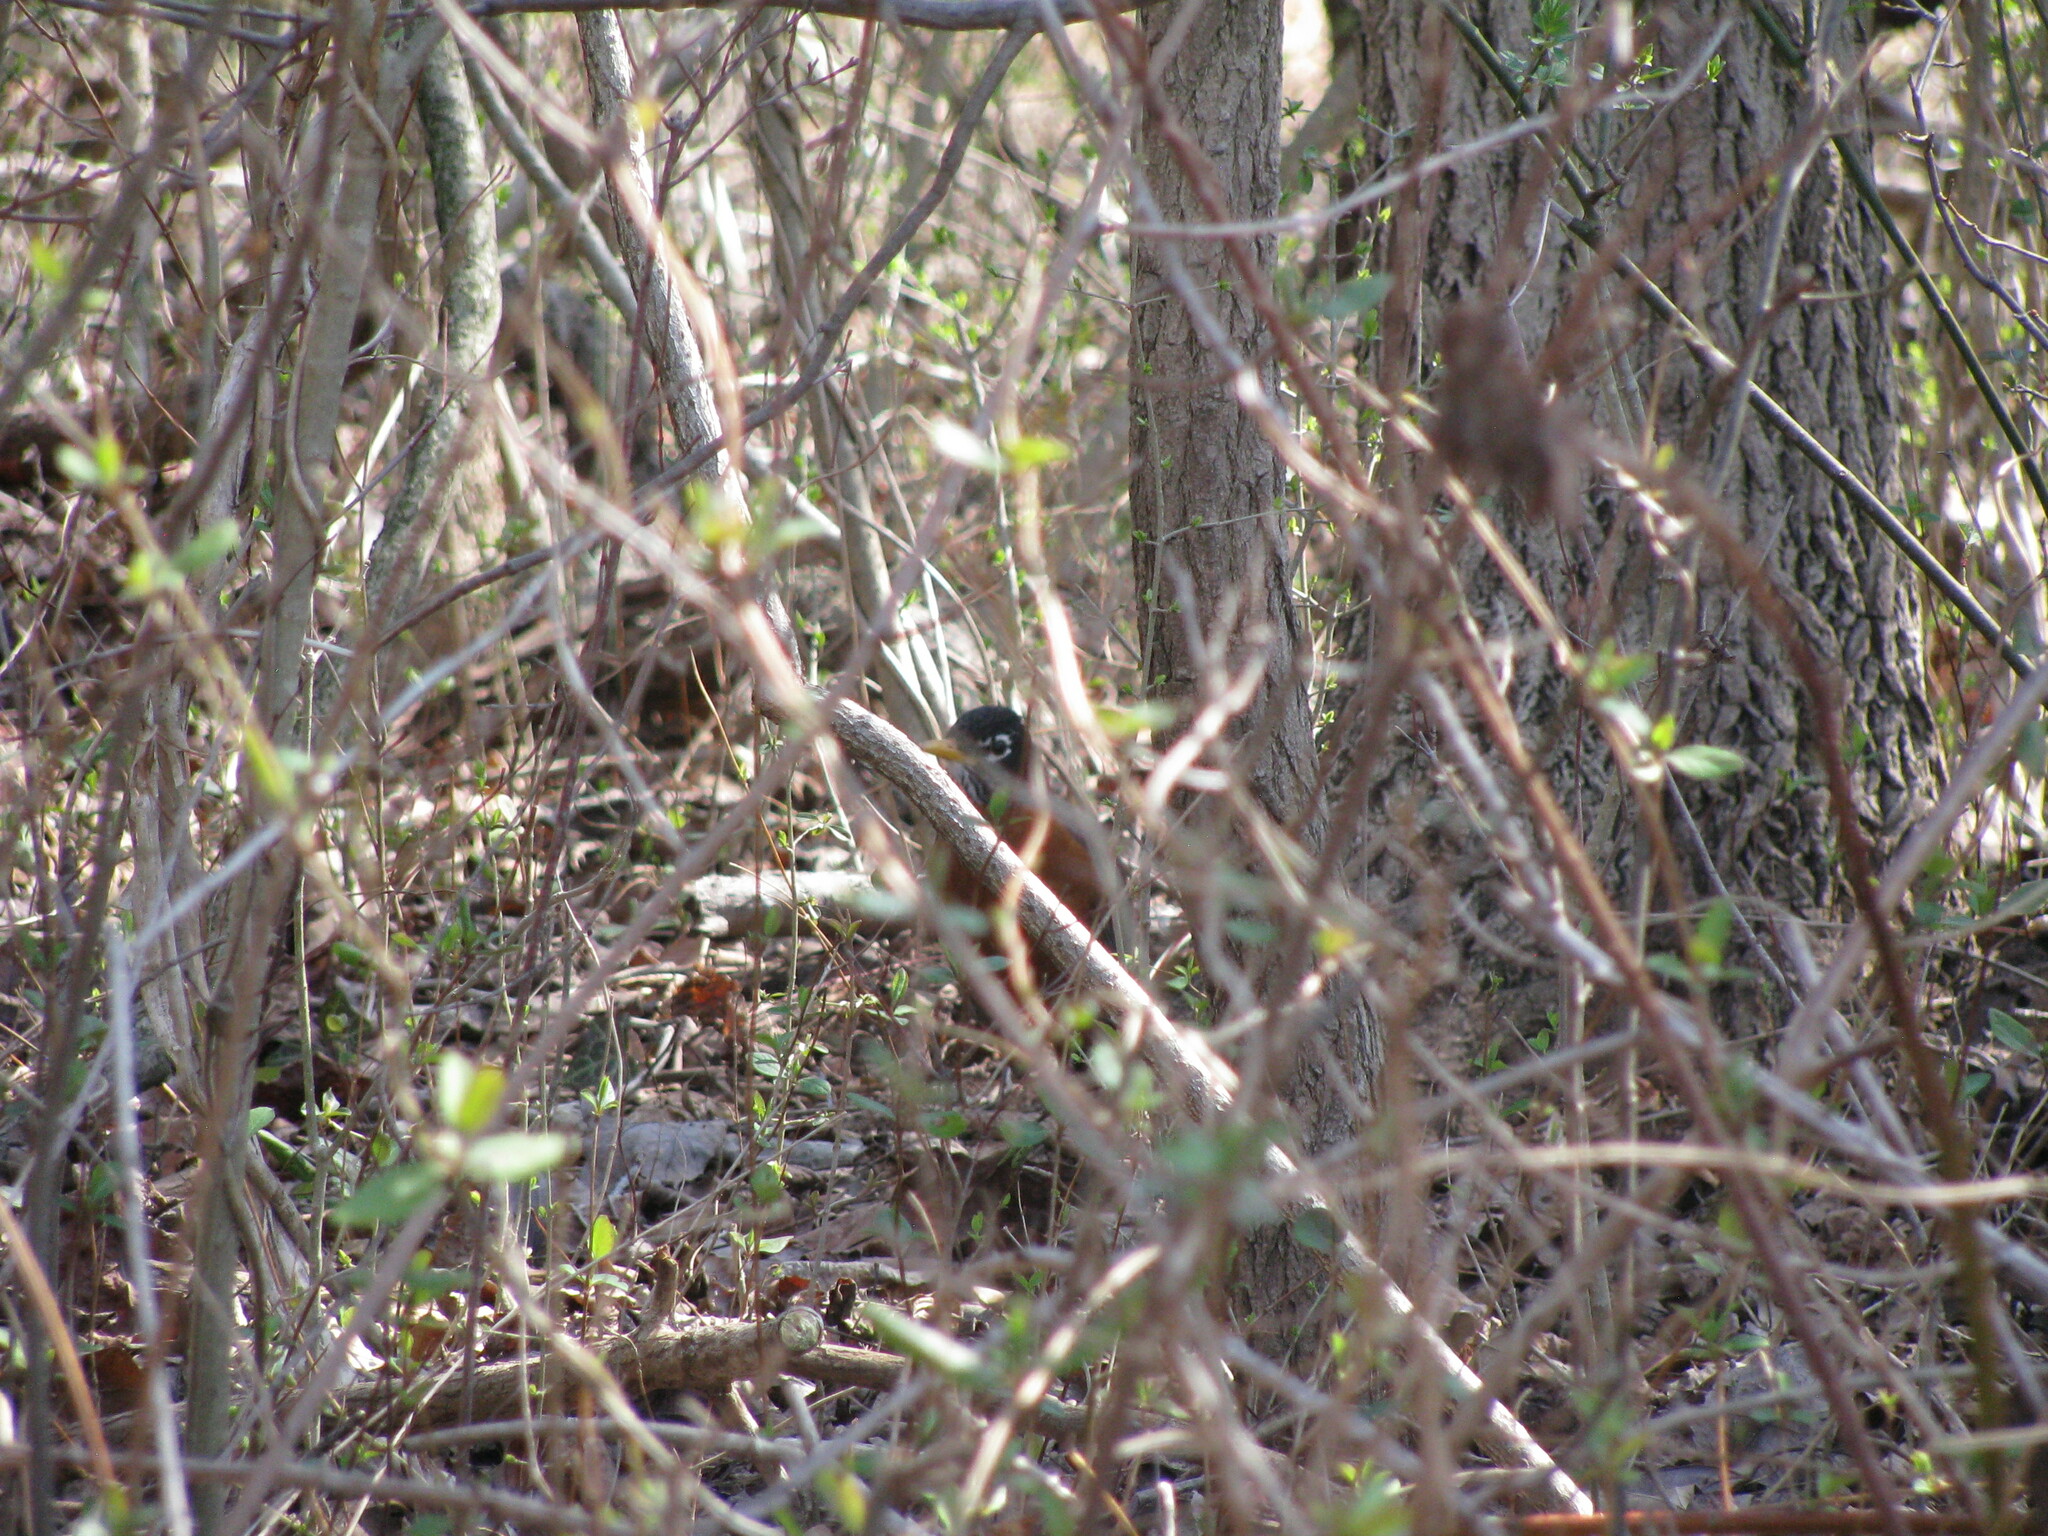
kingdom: Animalia
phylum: Chordata
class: Aves
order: Passeriformes
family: Turdidae
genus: Turdus
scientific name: Turdus migratorius
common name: American robin
